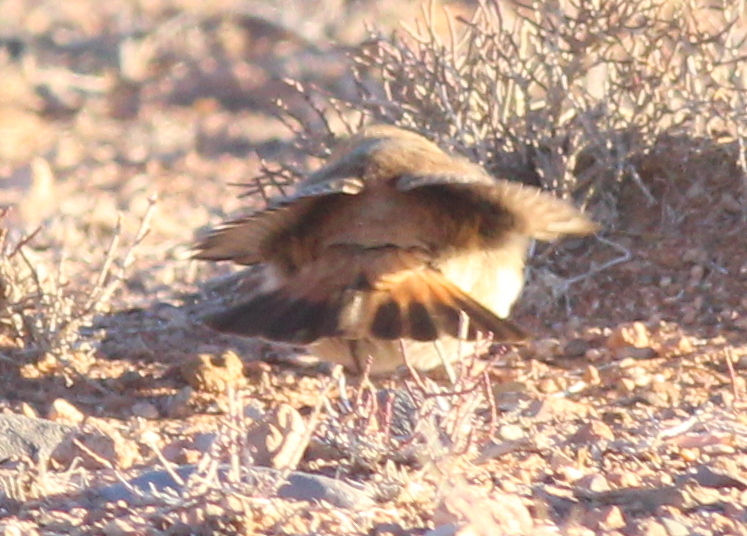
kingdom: Animalia
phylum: Chordata
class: Aves
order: Passeriformes
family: Muscicapidae
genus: Oenanthe
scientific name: Oenanthe moesta
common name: Red-rumped wheatear
